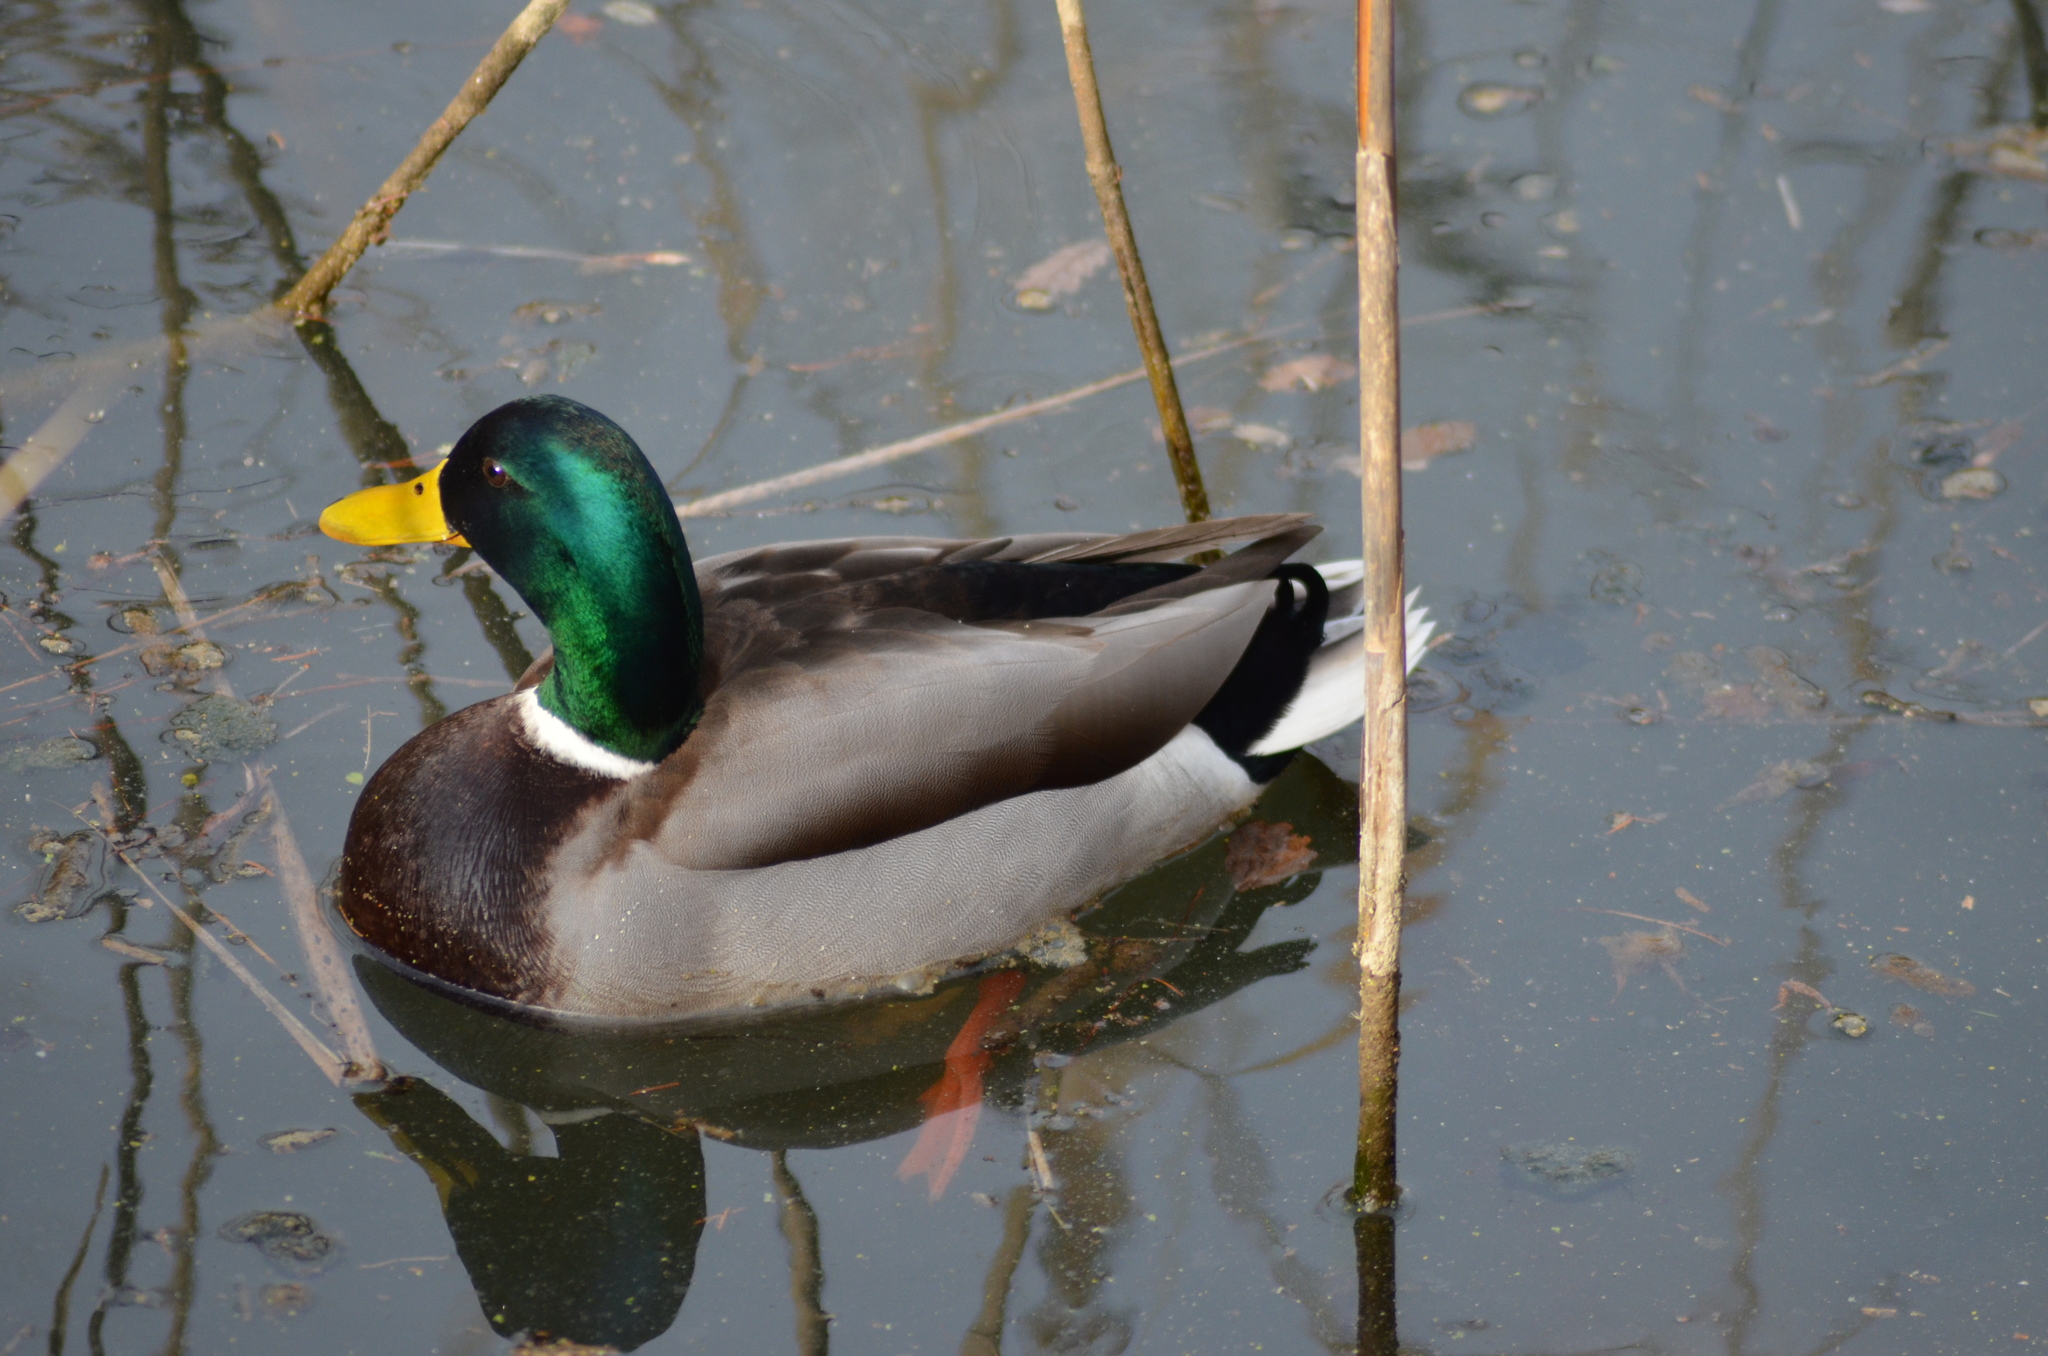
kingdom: Animalia
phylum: Chordata
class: Aves
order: Anseriformes
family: Anatidae
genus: Anas
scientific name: Anas platyrhynchos
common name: Mallard
